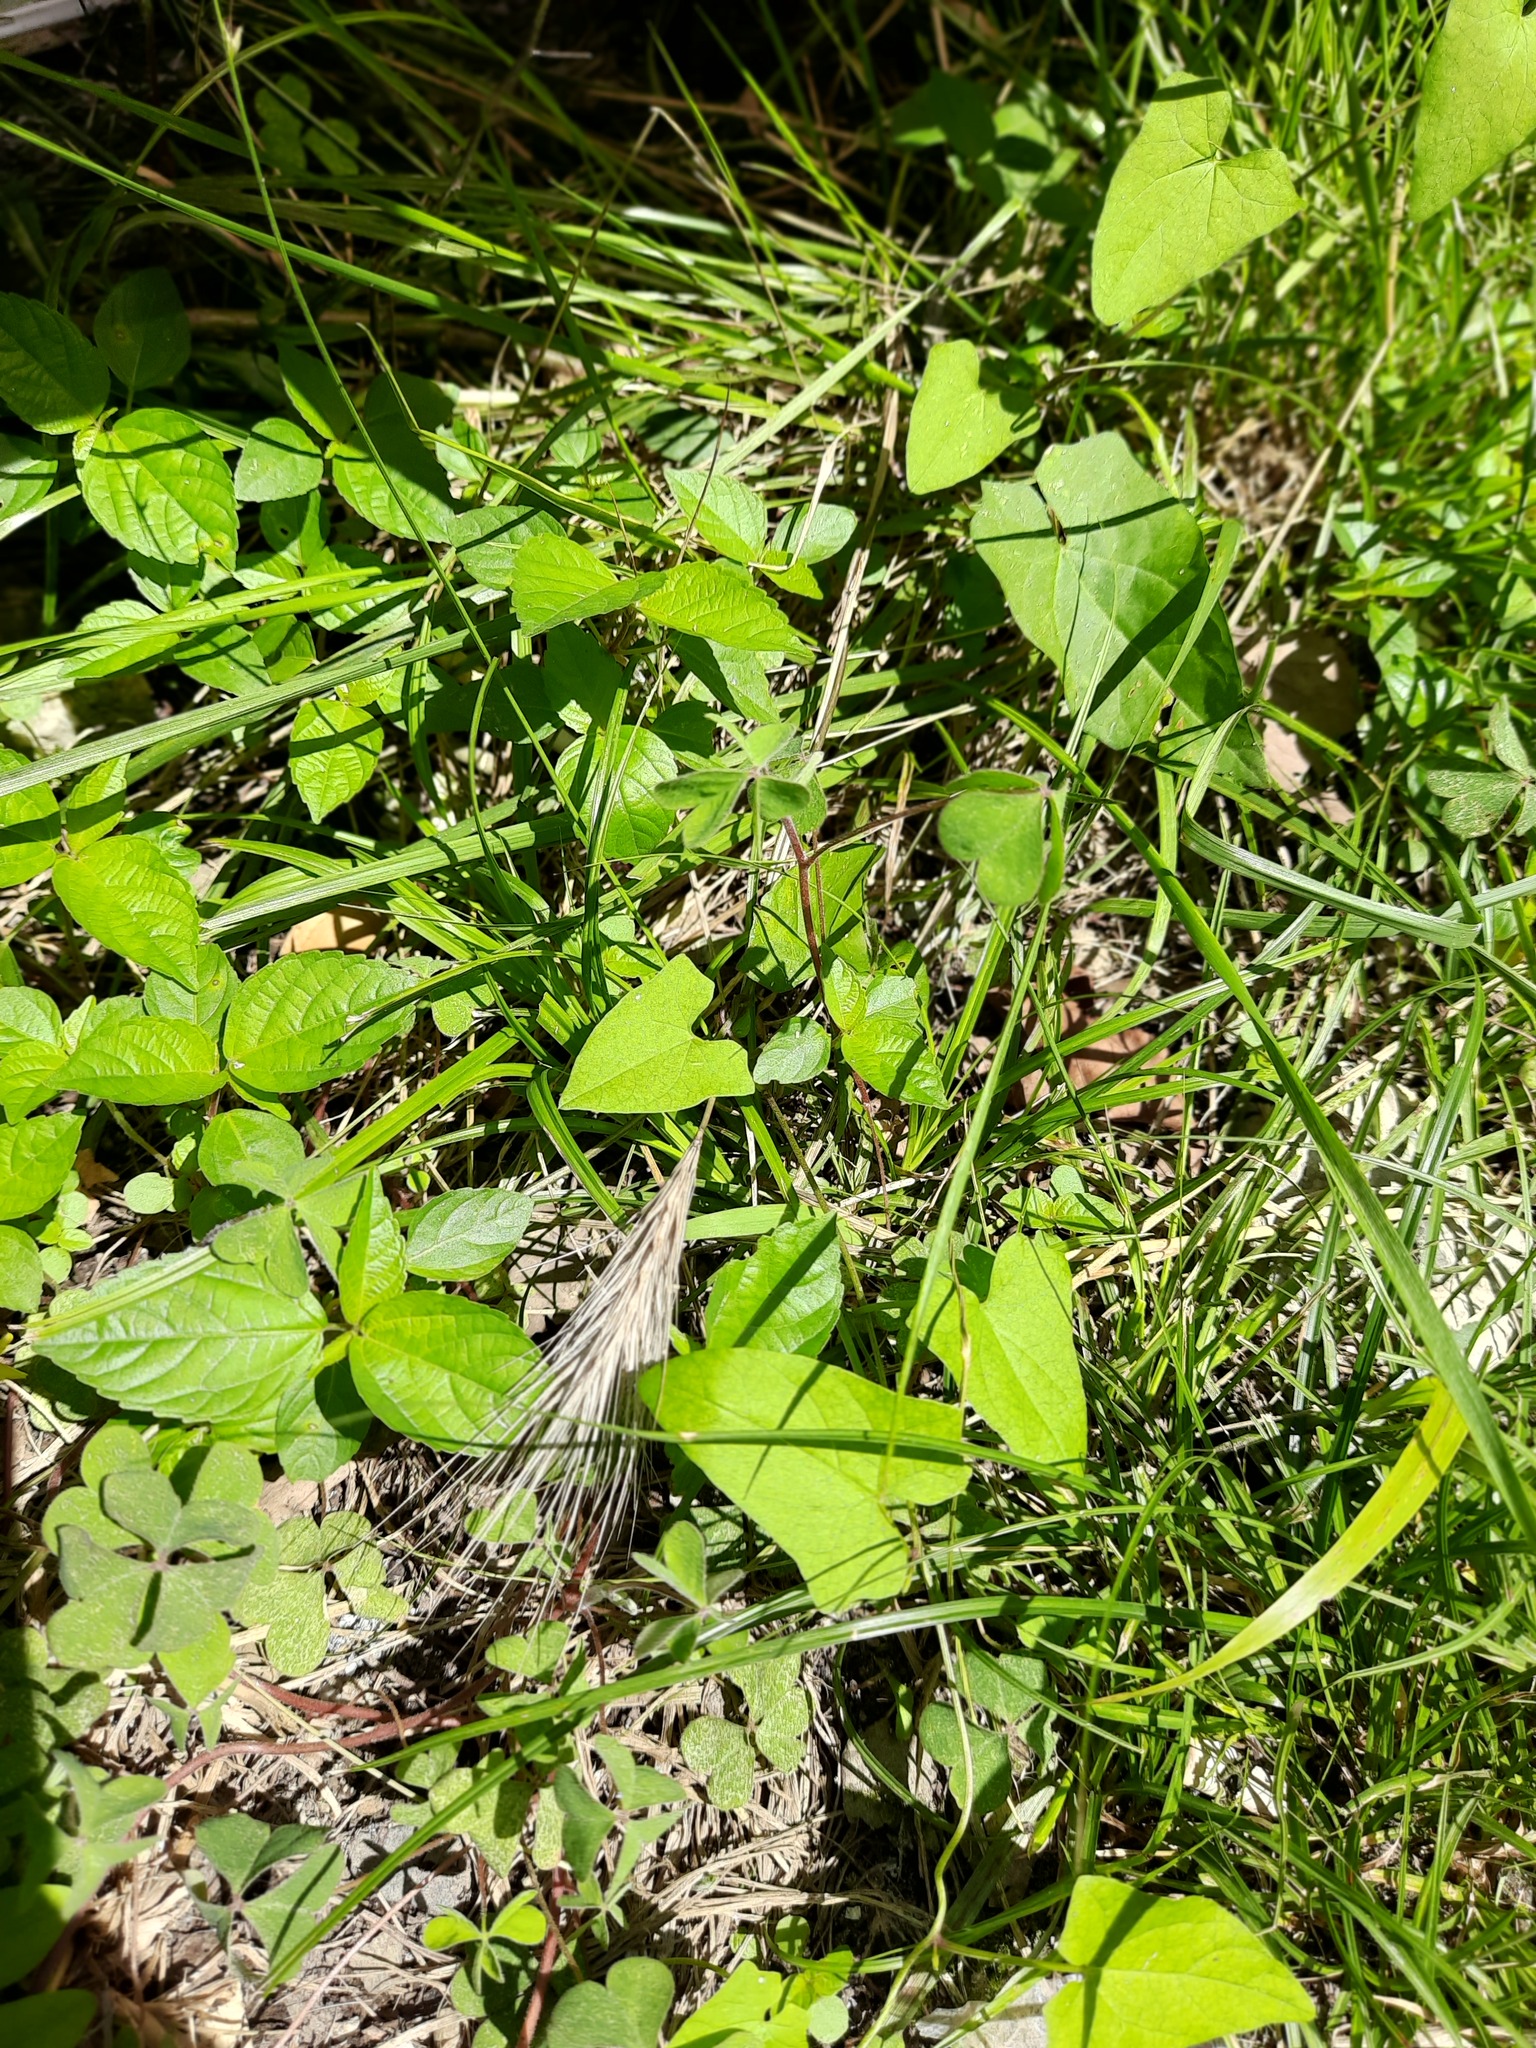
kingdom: Plantae
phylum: Tracheophyta
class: Magnoliopsida
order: Solanales
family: Convolvulaceae
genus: Calystegia
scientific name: Calystegia
